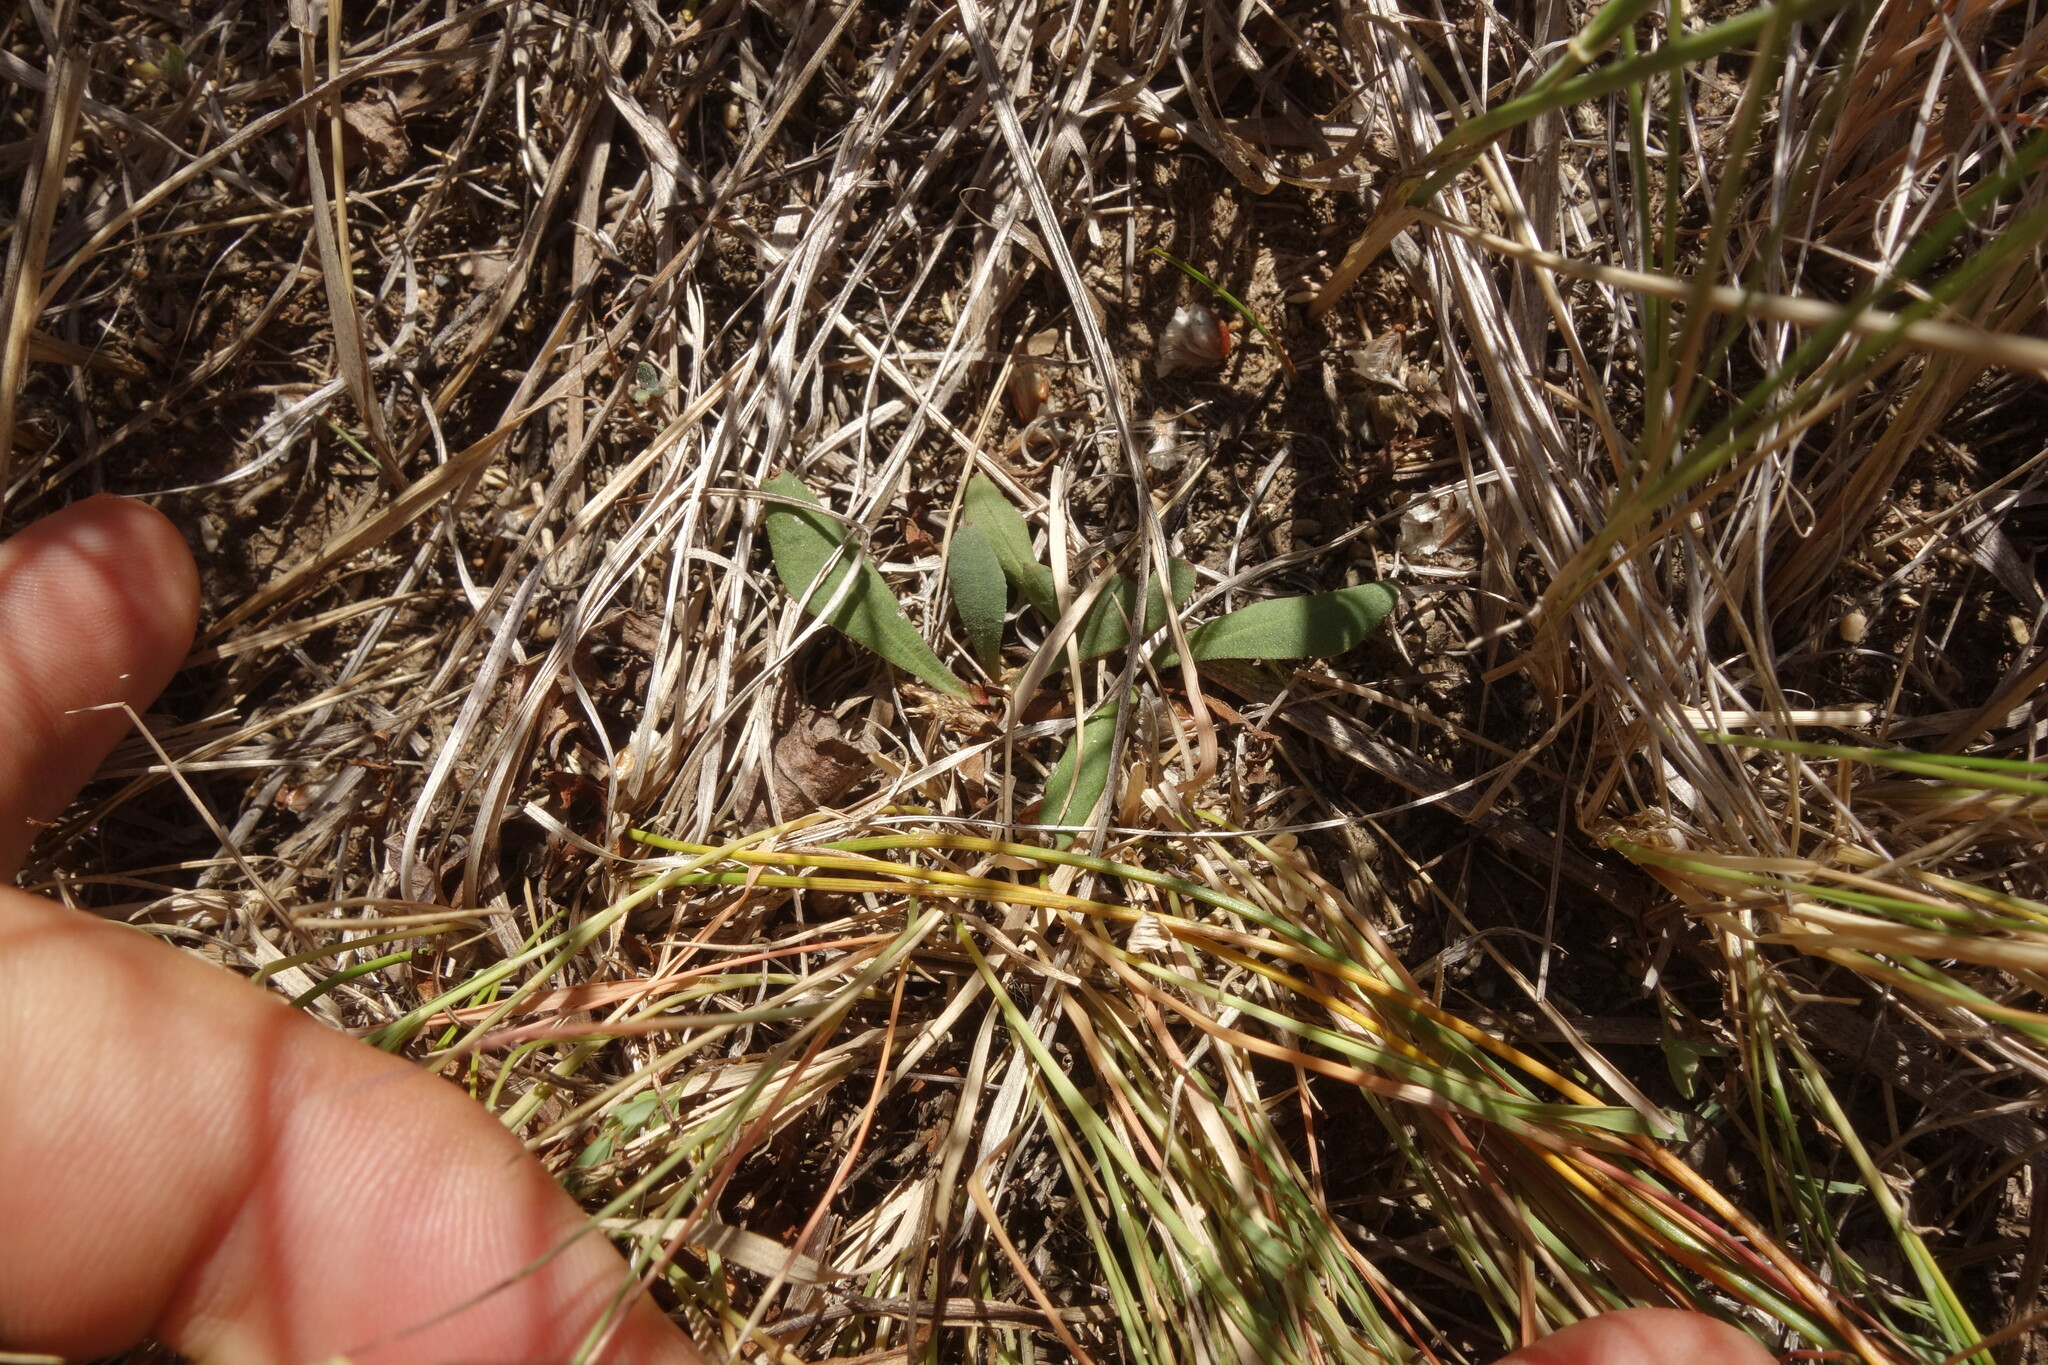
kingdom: Plantae
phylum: Tracheophyta
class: Magnoliopsida
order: Caryophyllales
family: Plumbaginaceae
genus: Limonium
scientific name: Limonium flexuosum
